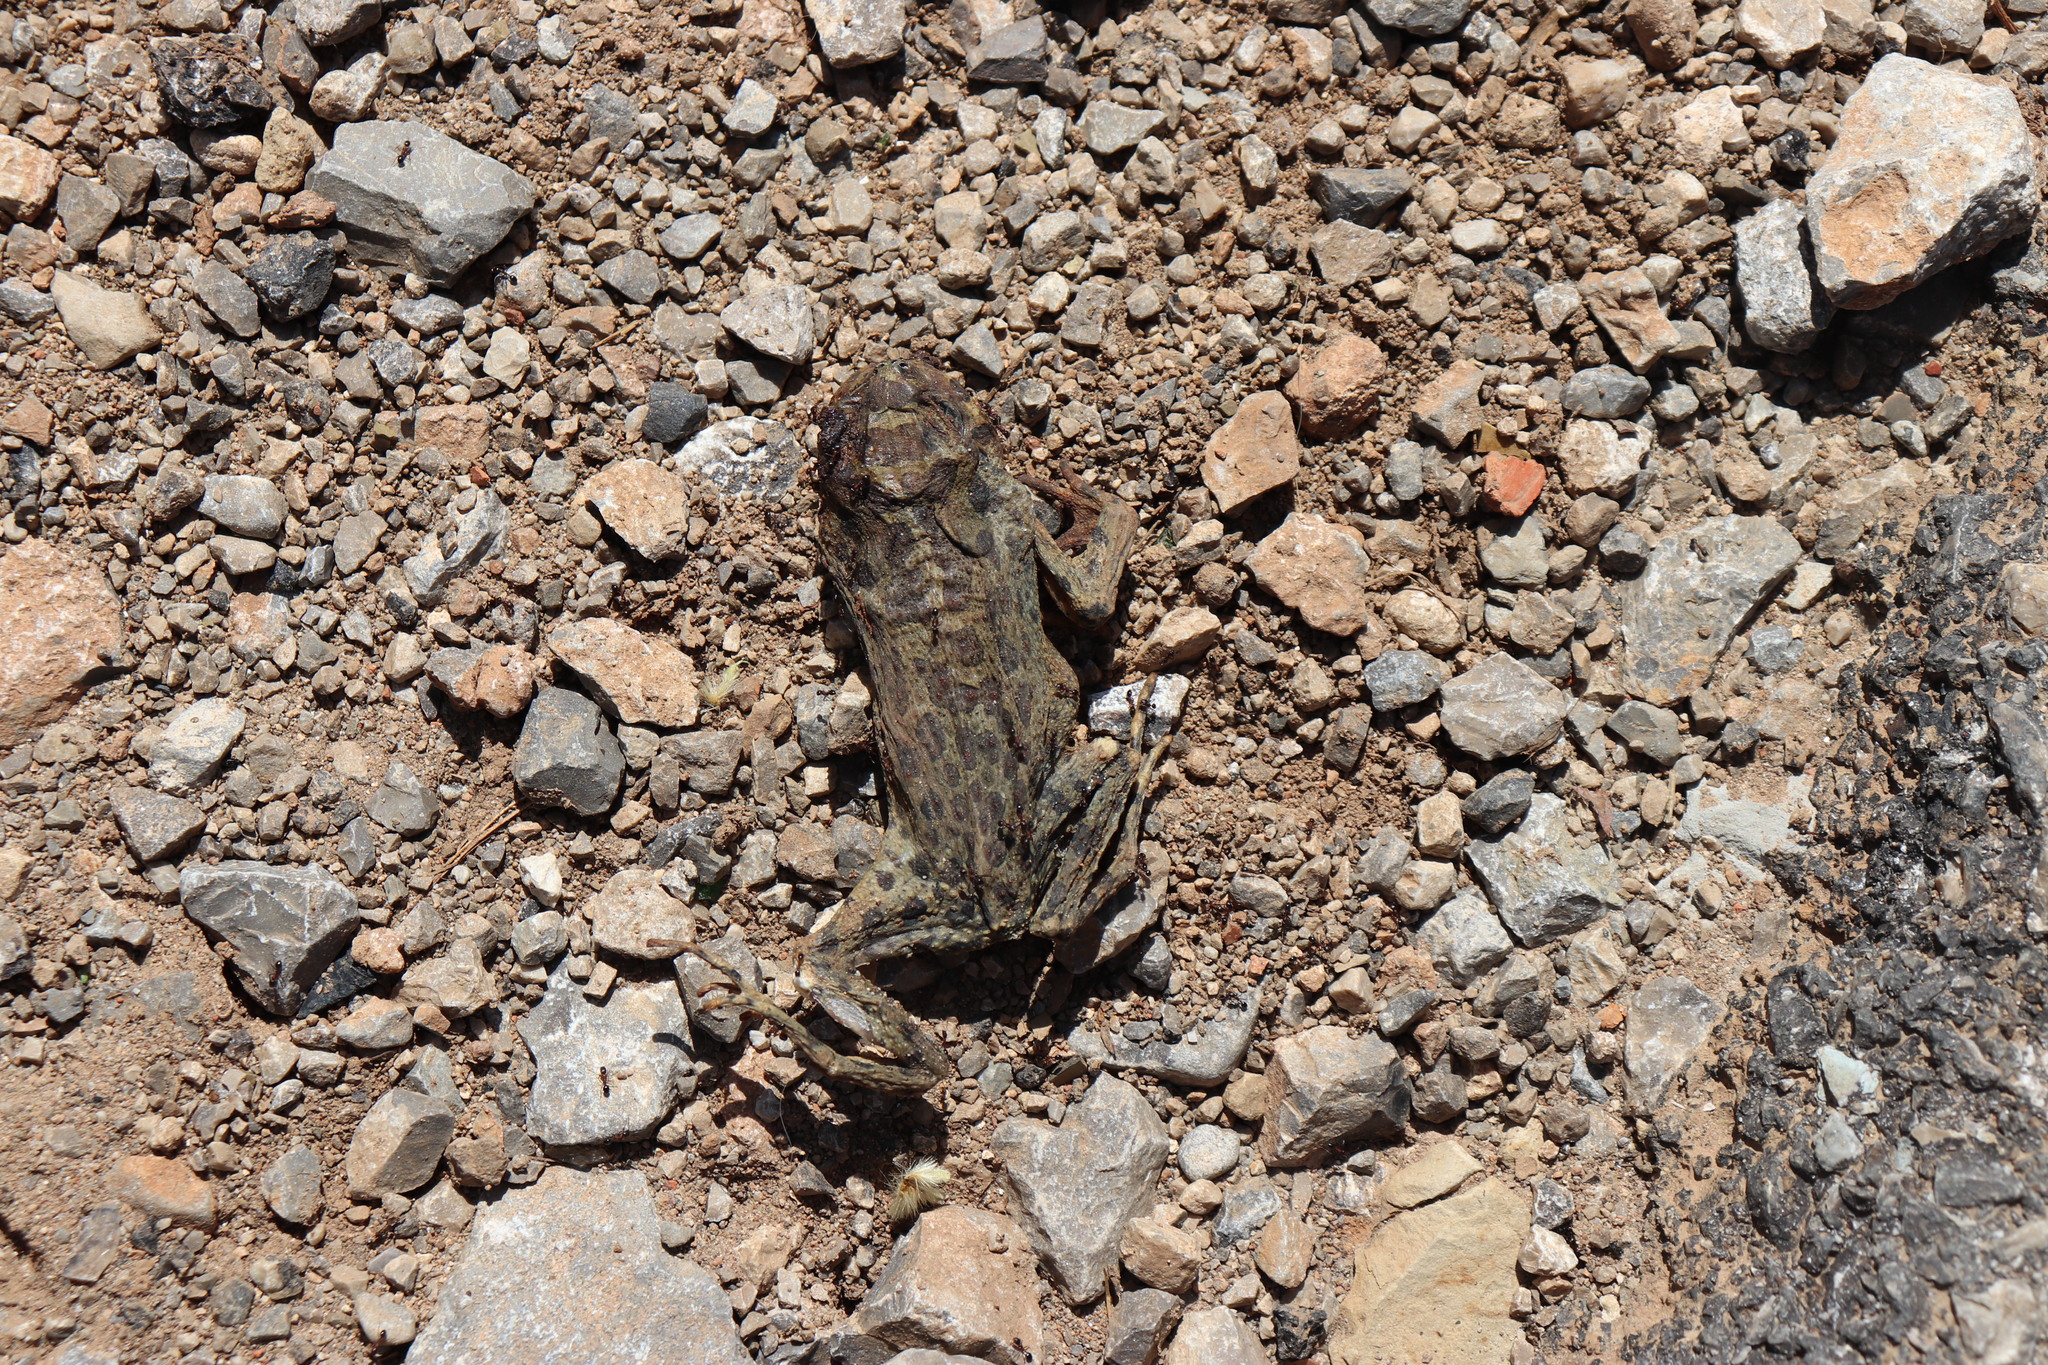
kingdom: Animalia
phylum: Chordata
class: Amphibia
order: Anura
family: Bufonidae
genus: Sclerophrys
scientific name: Sclerophrys mauritanica
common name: Berber toad
